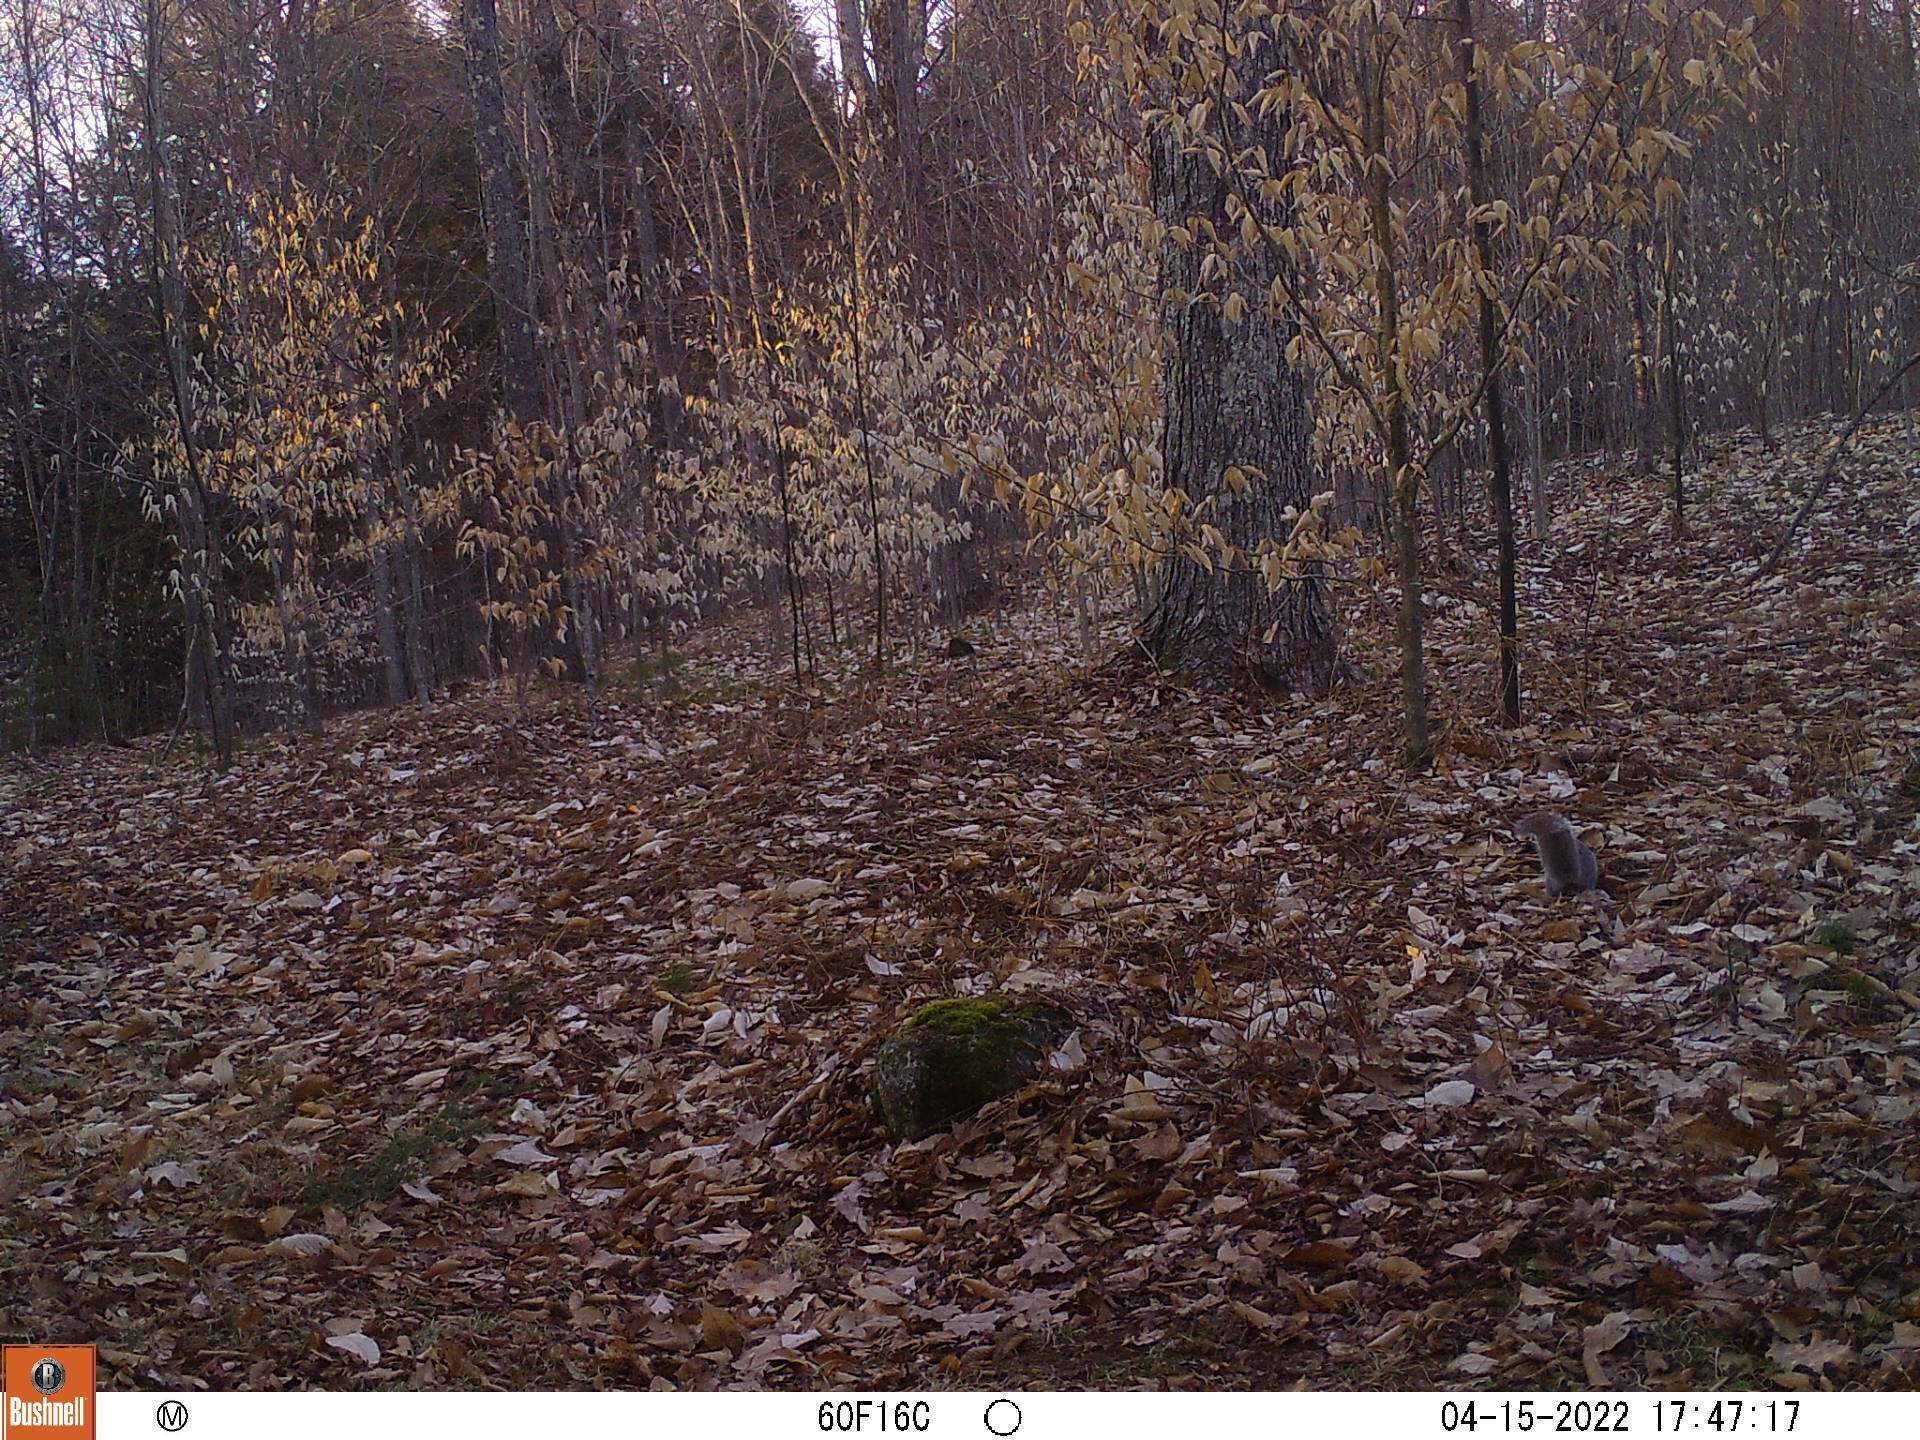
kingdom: Animalia
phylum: Chordata
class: Mammalia
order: Rodentia
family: Sciuridae
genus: Sciurus
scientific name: Sciurus carolinensis
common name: Eastern gray squirrel
